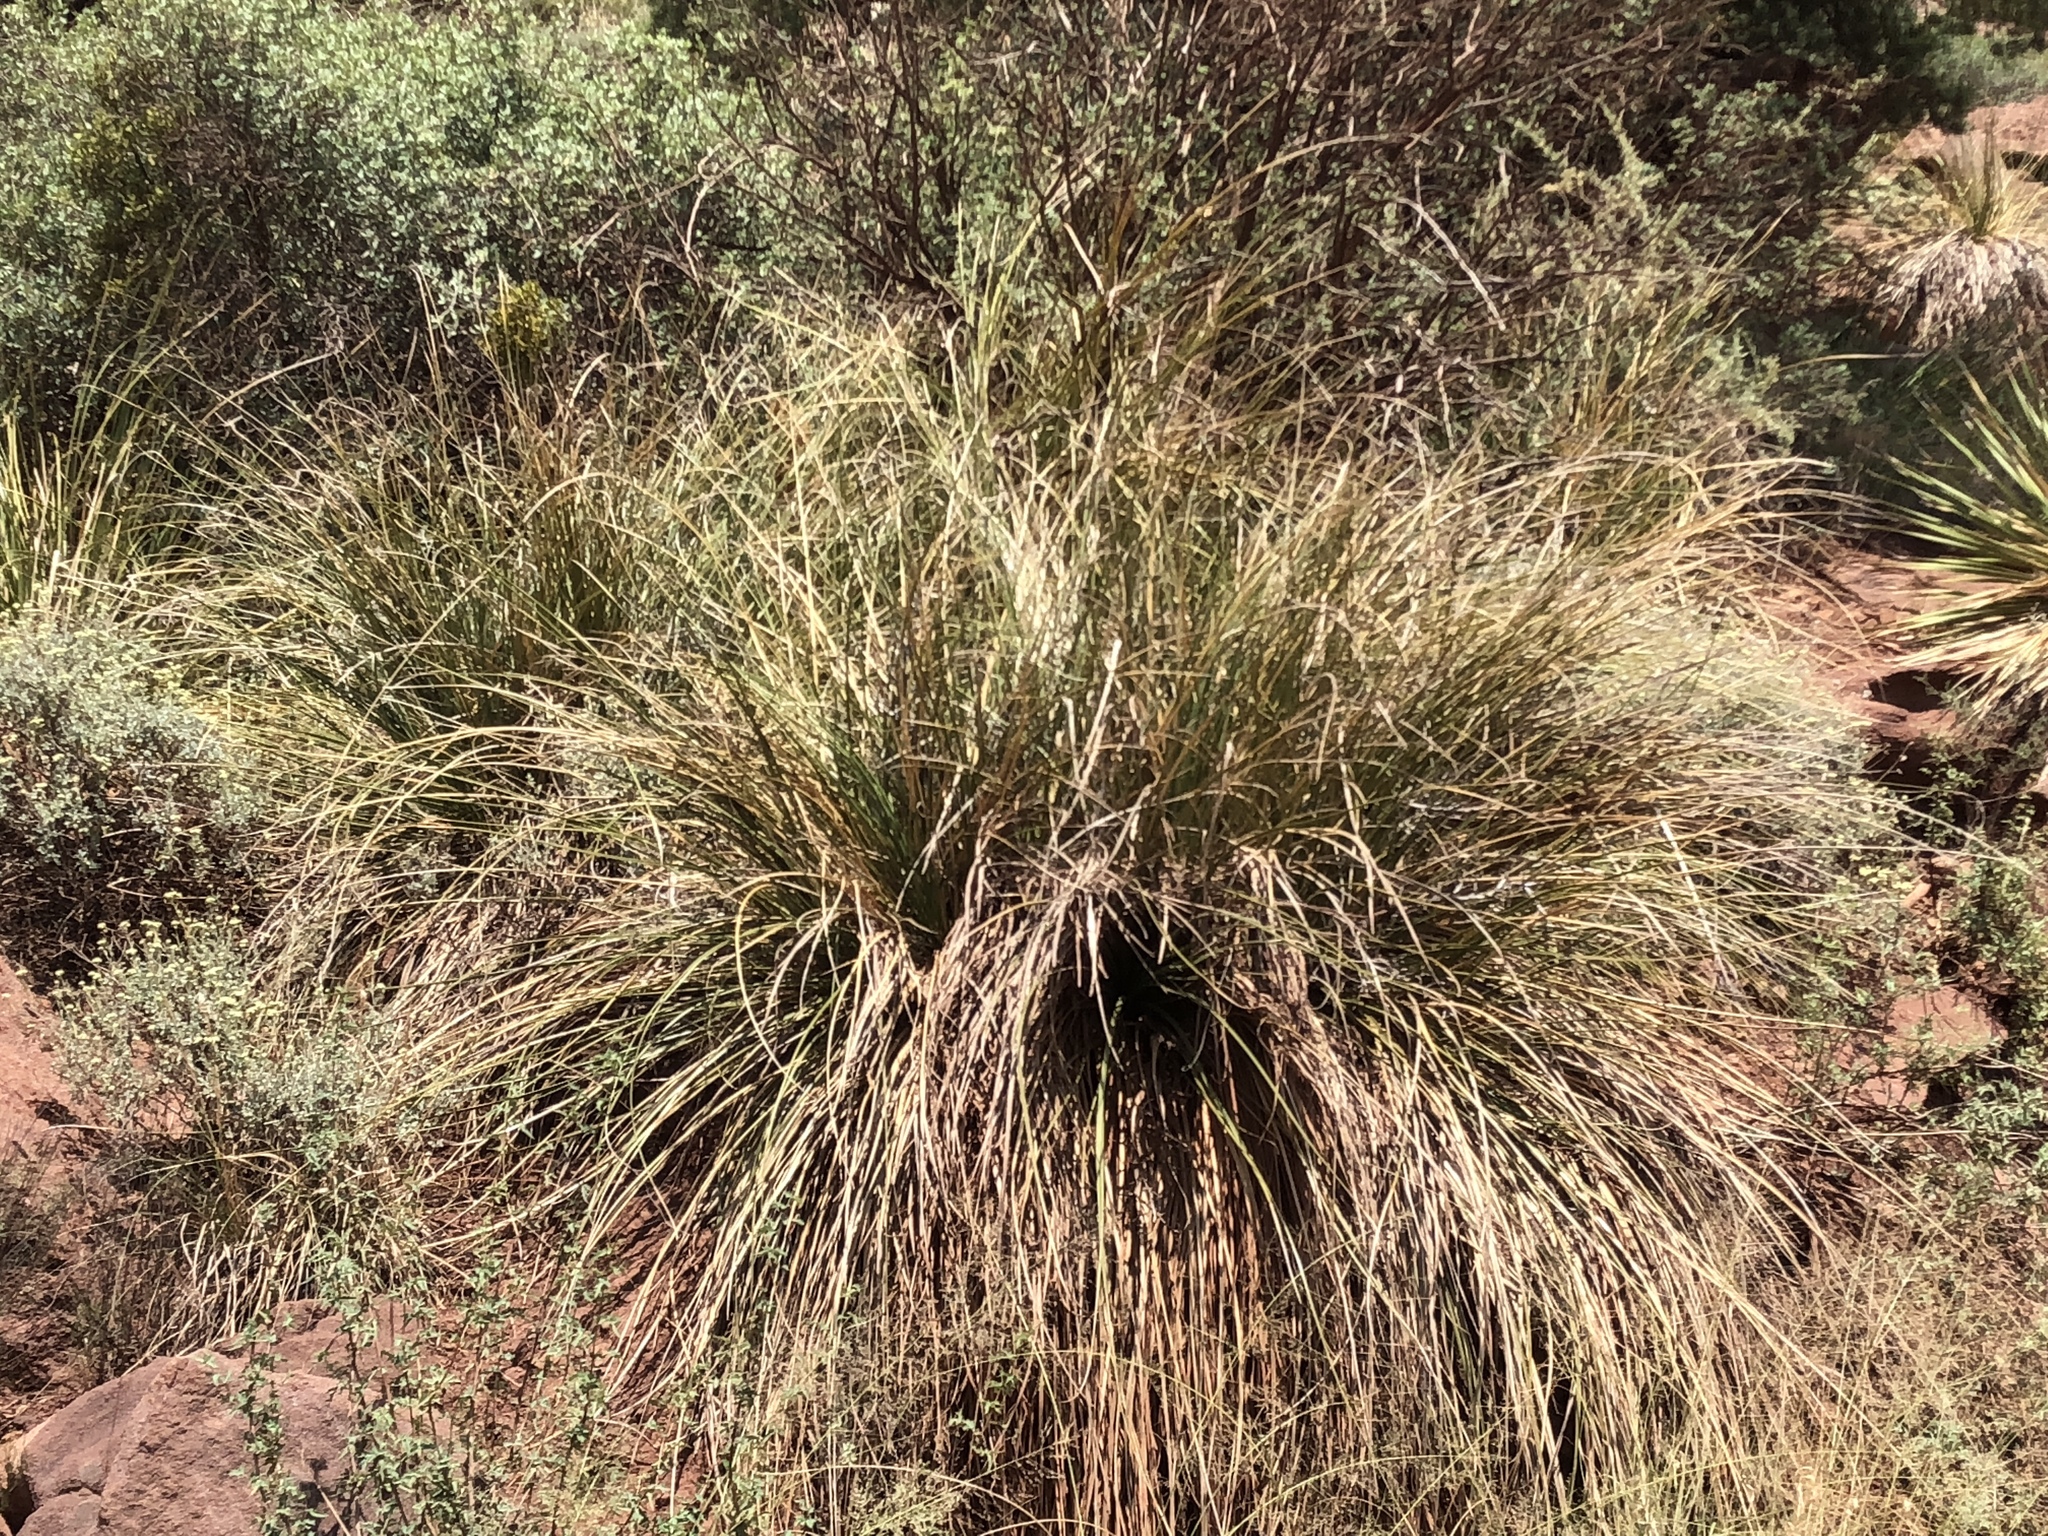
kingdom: Plantae
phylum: Tracheophyta
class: Liliopsida
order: Asparagales
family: Asparagaceae
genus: Nolina
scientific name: Nolina microcarpa
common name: Bear-grass
